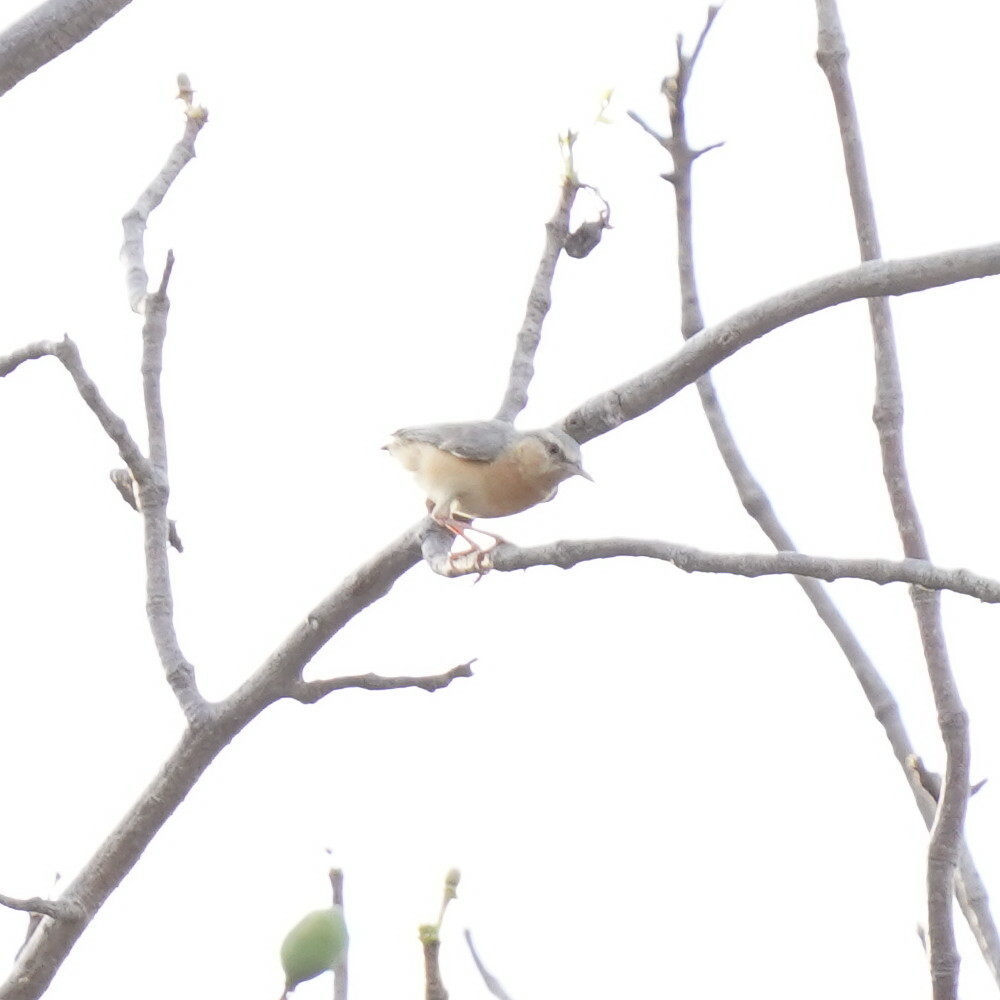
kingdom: Animalia
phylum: Chordata
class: Aves
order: Passeriformes
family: Macrosphenidae
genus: Sylvietta
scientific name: Sylvietta brachyura
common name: Northern crombec
